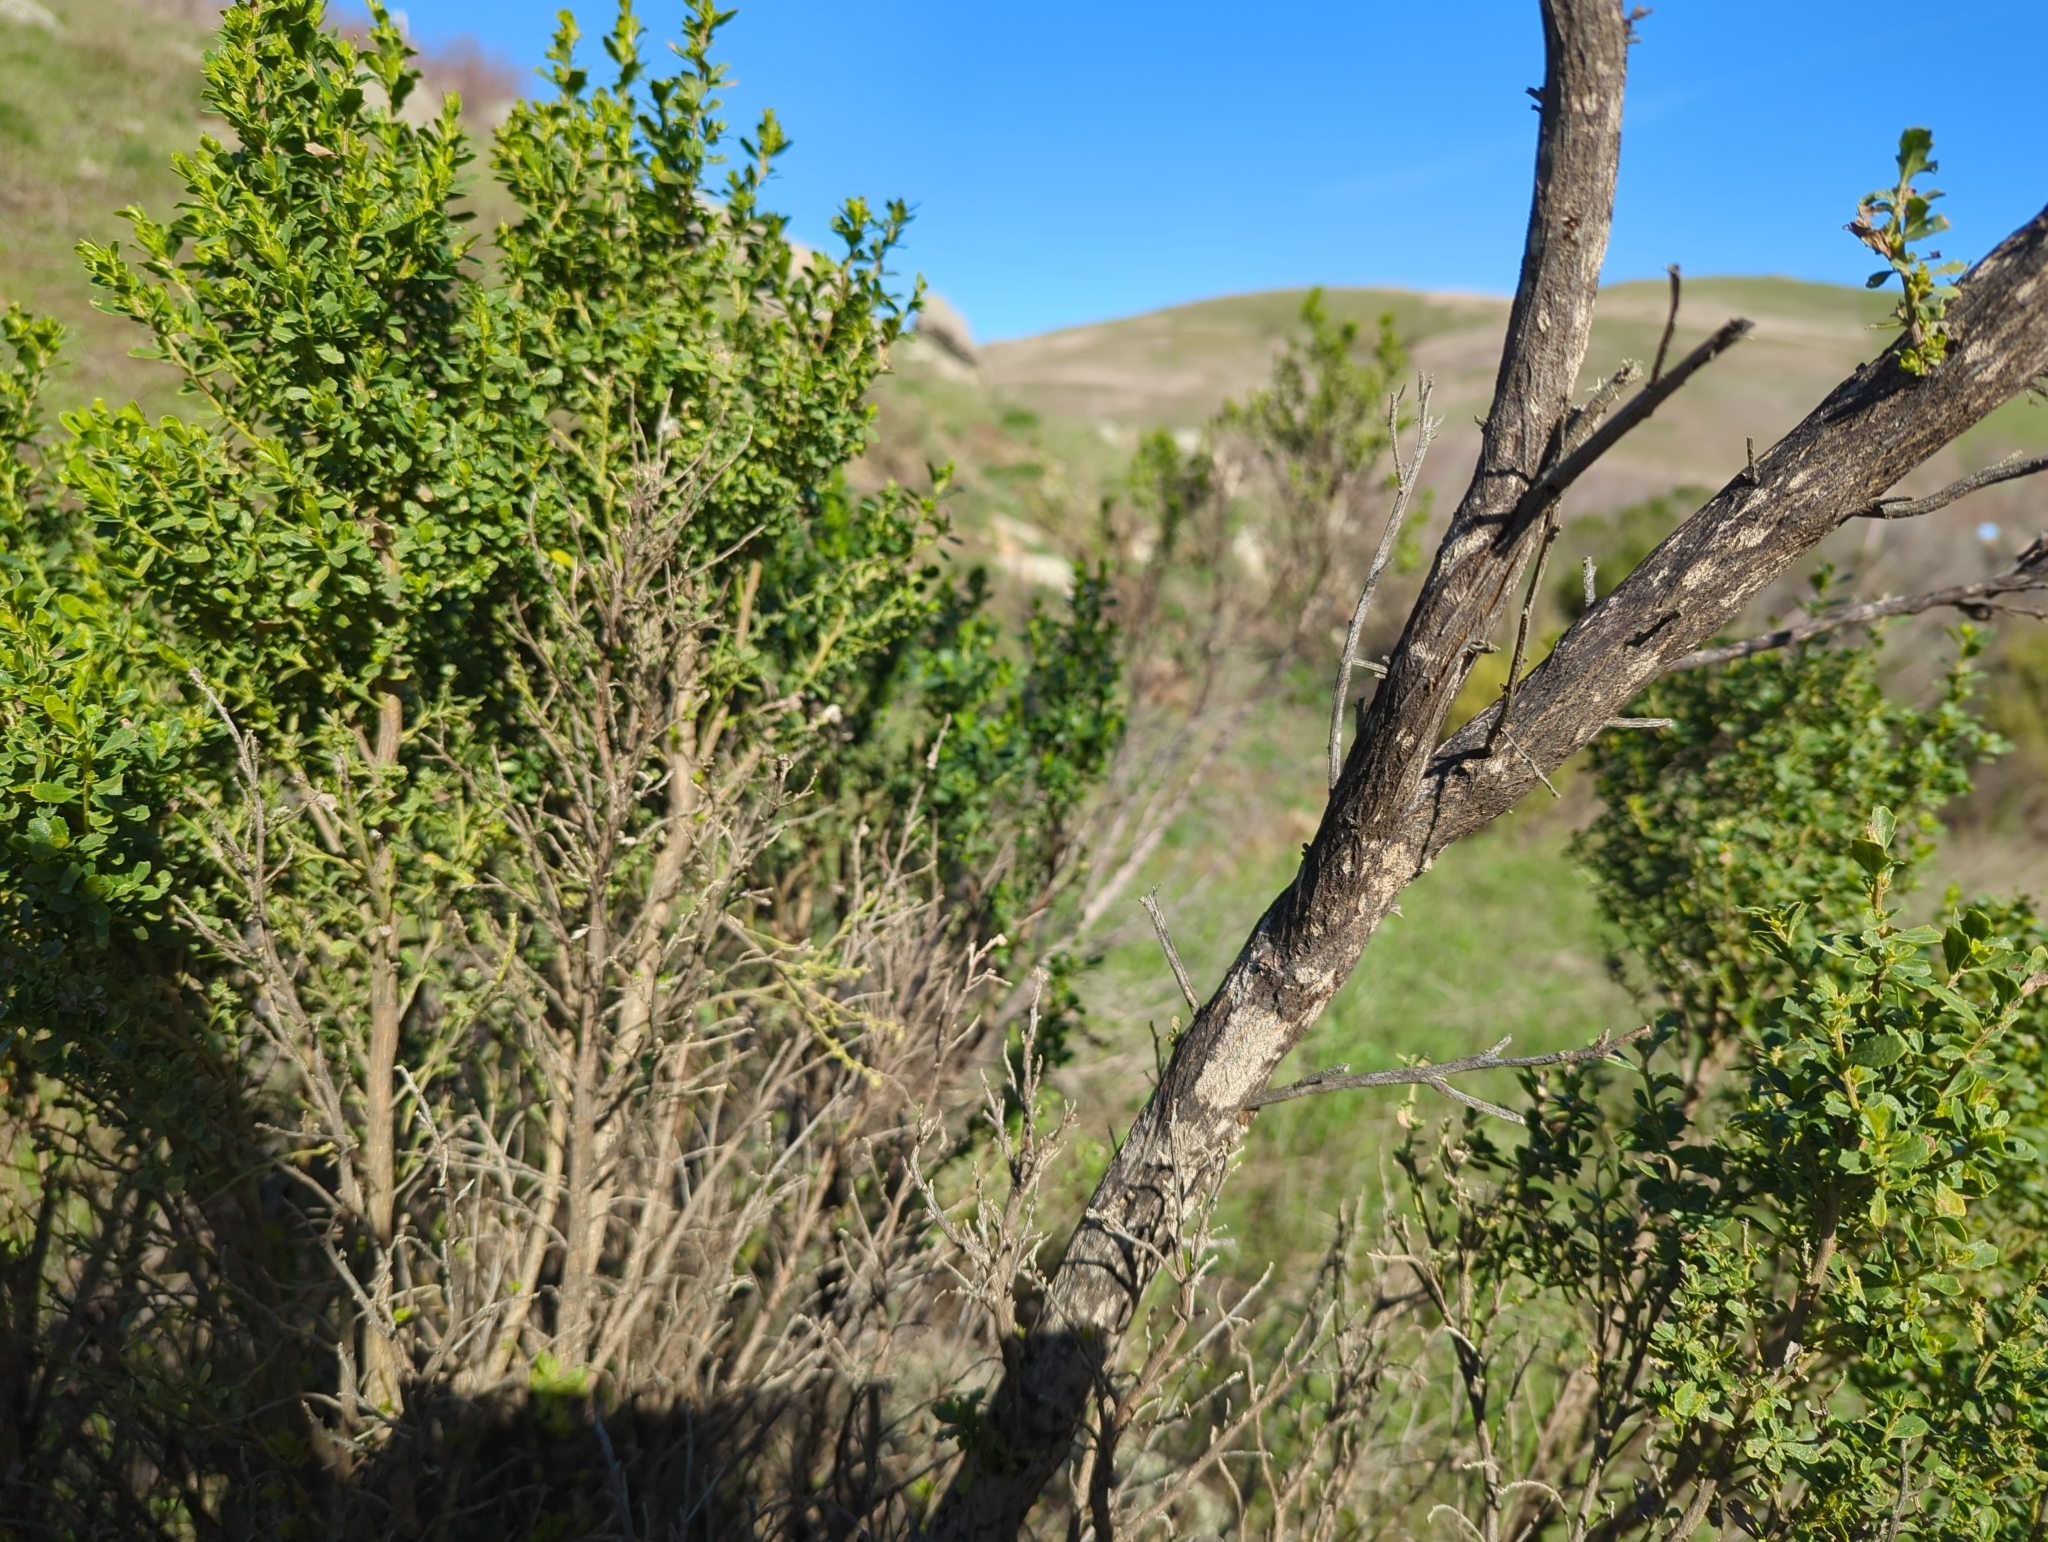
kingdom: Plantae
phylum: Tracheophyta
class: Magnoliopsida
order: Asterales
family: Asteraceae
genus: Baccharis
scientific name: Baccharis pilularis
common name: Coyotebrush
